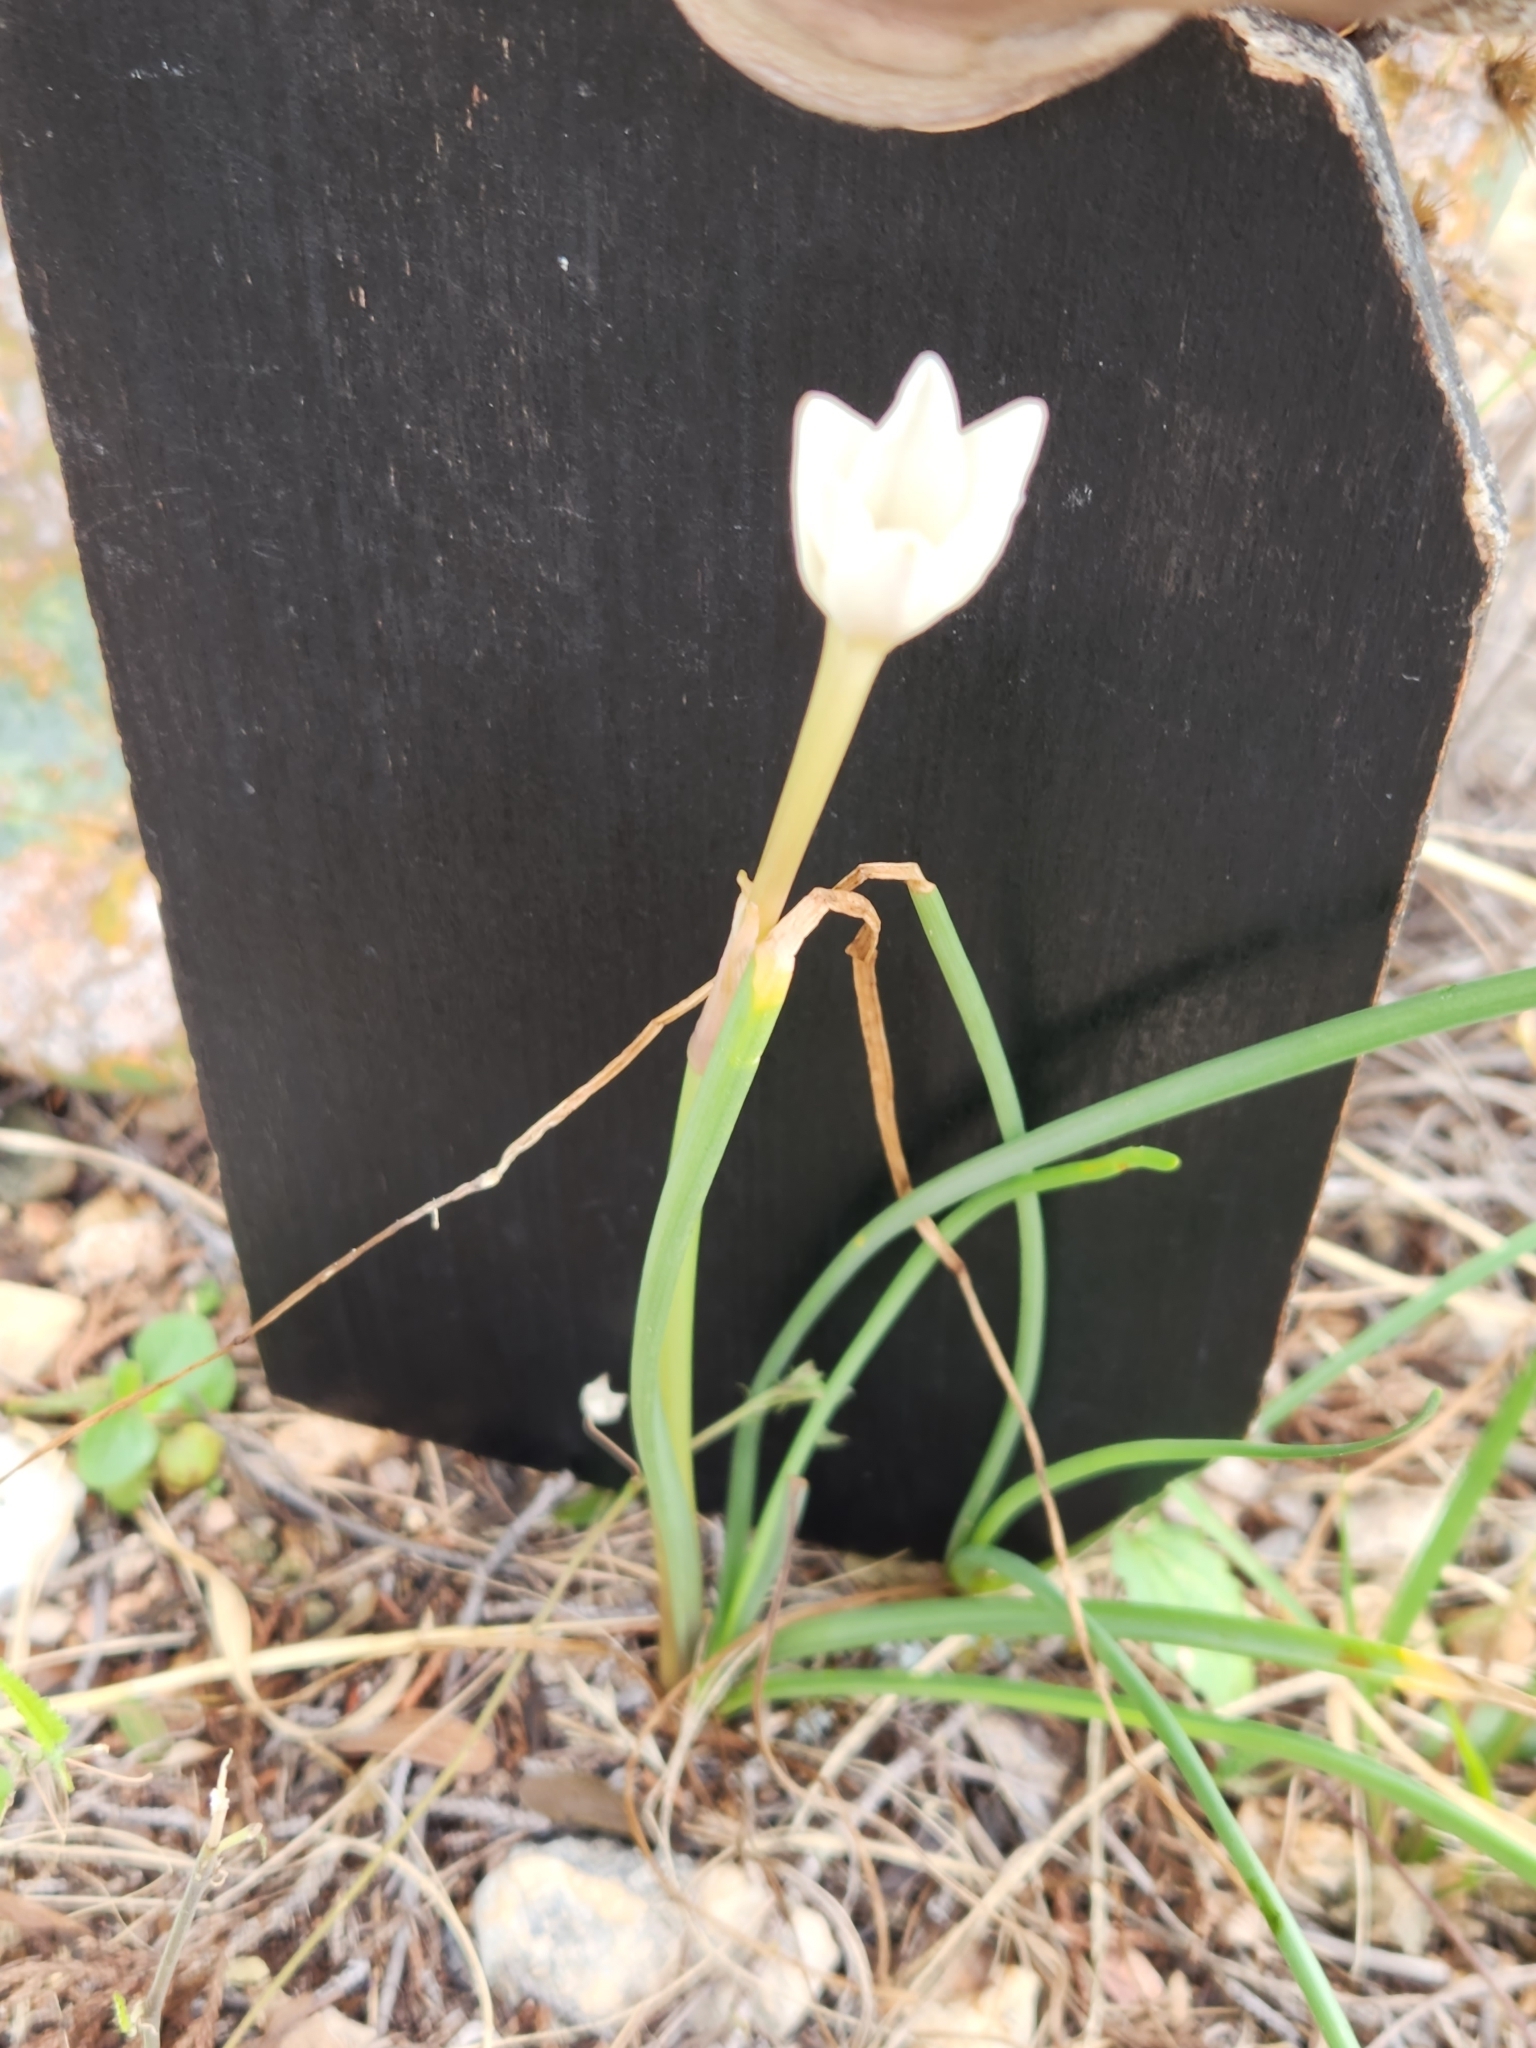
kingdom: Plantae
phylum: Tracheophyta
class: Liliopsida
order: Asparagales
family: Amaryllidaceae
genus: Zephyranthes
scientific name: Zephyranthes chlorosolen
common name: Evening rain-lily
